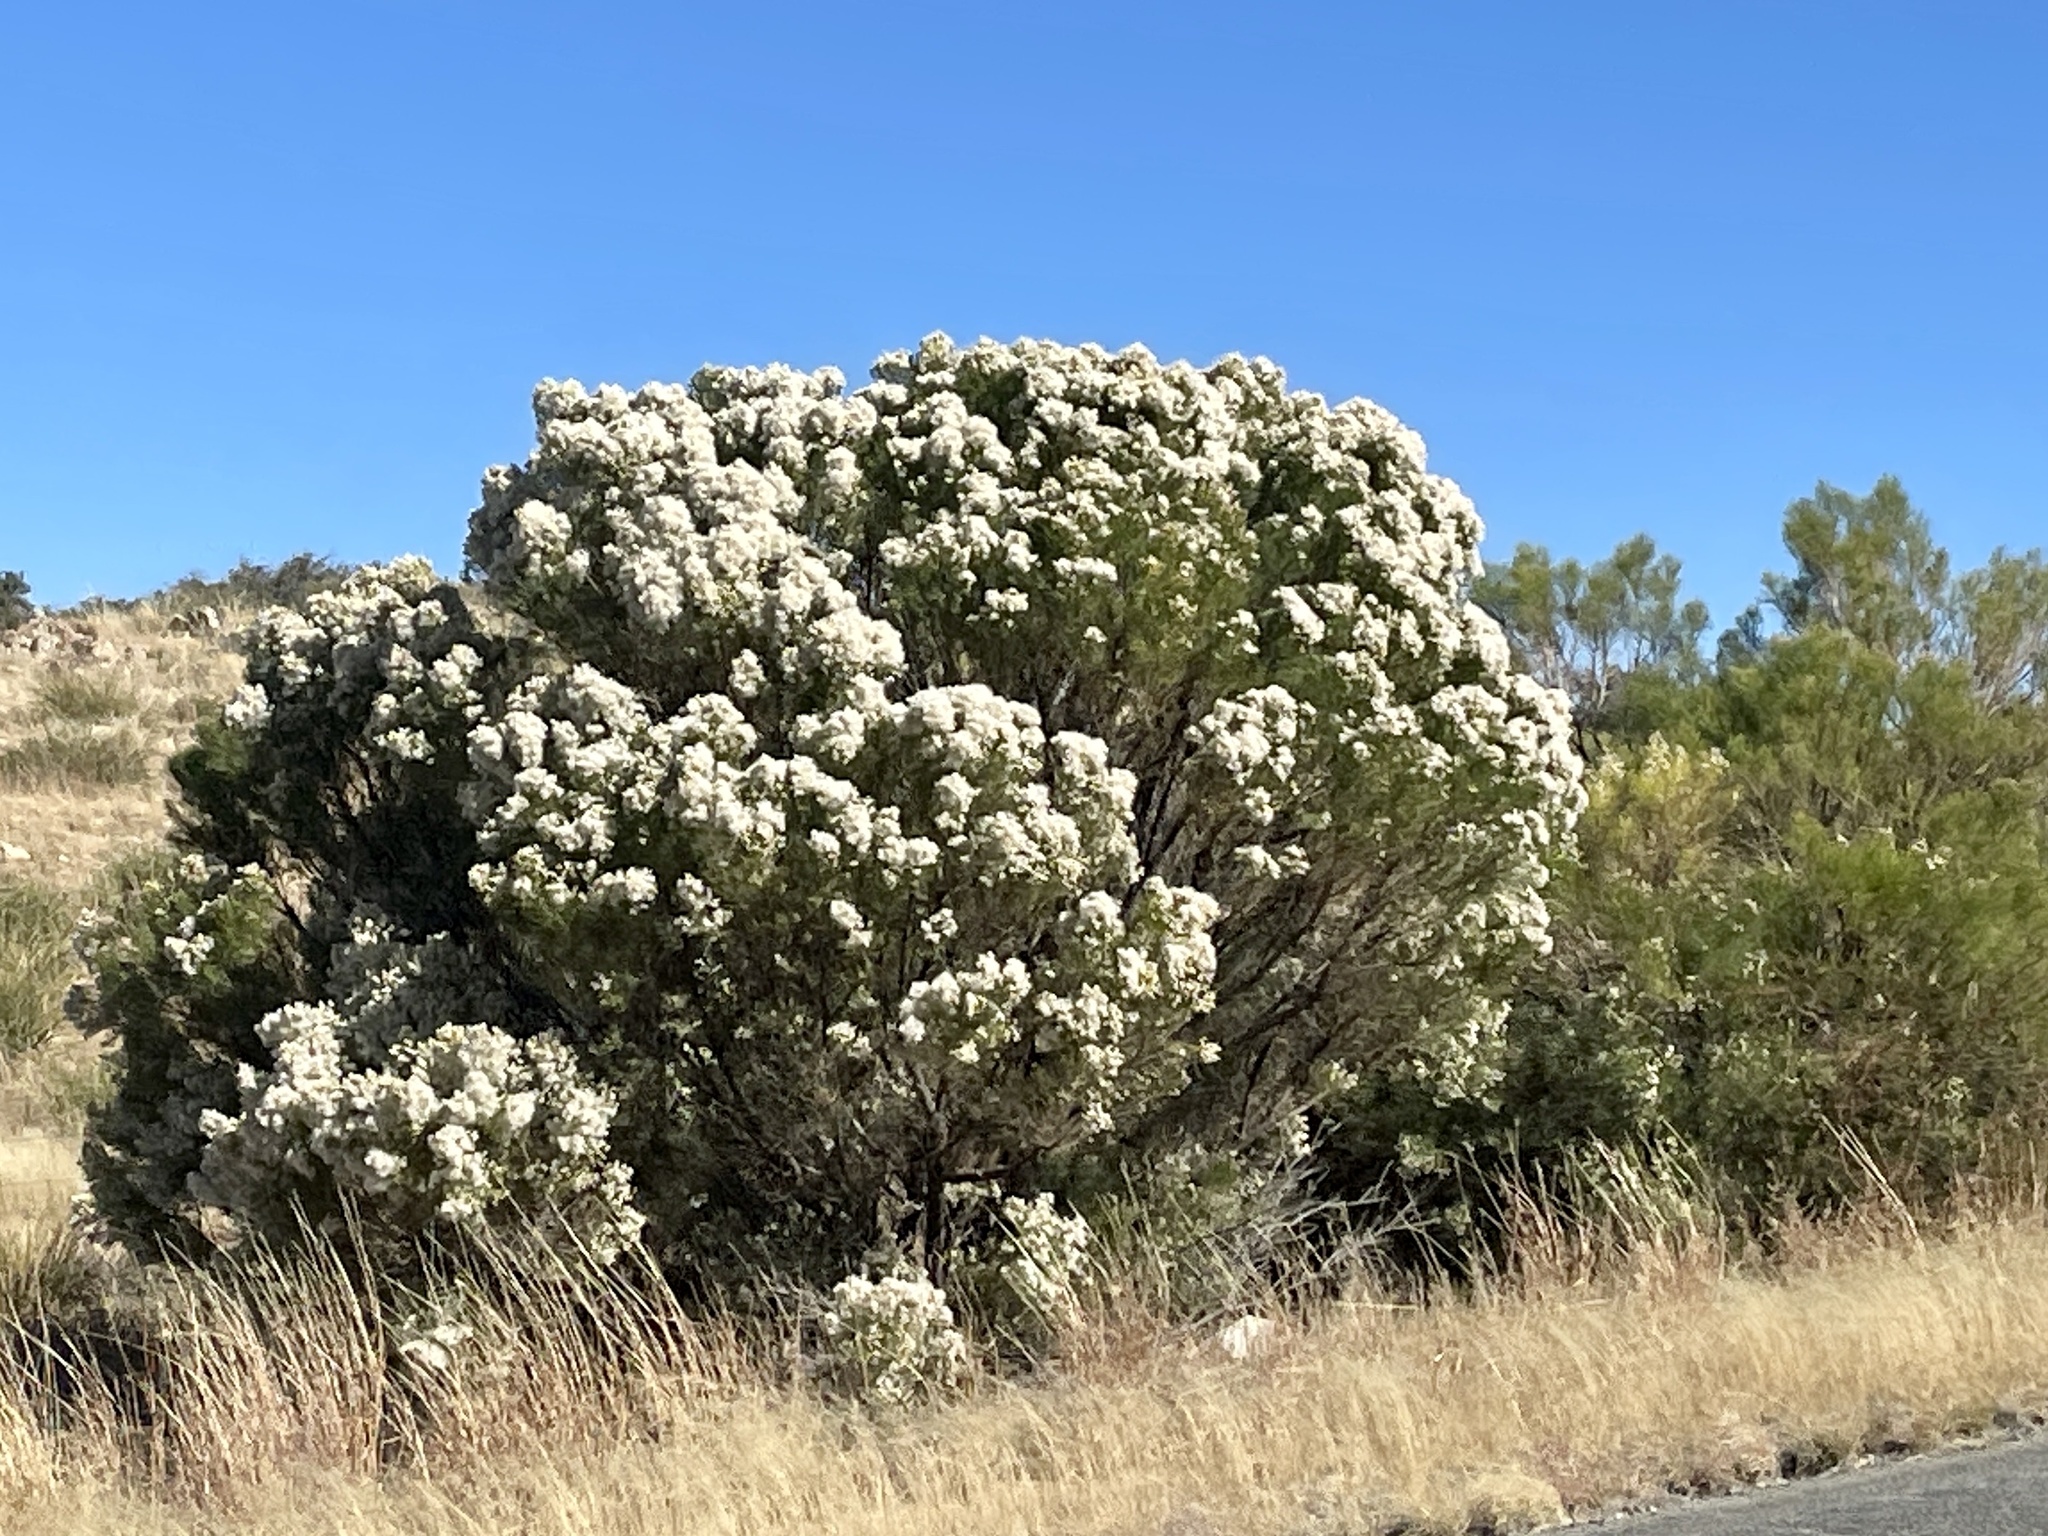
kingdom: Plantae
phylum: Tracheophyta
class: Magnoliopsida
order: Asterales
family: Asteraceae
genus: Baccharis
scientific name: Baccharis sarothroides
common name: Desert-broom
